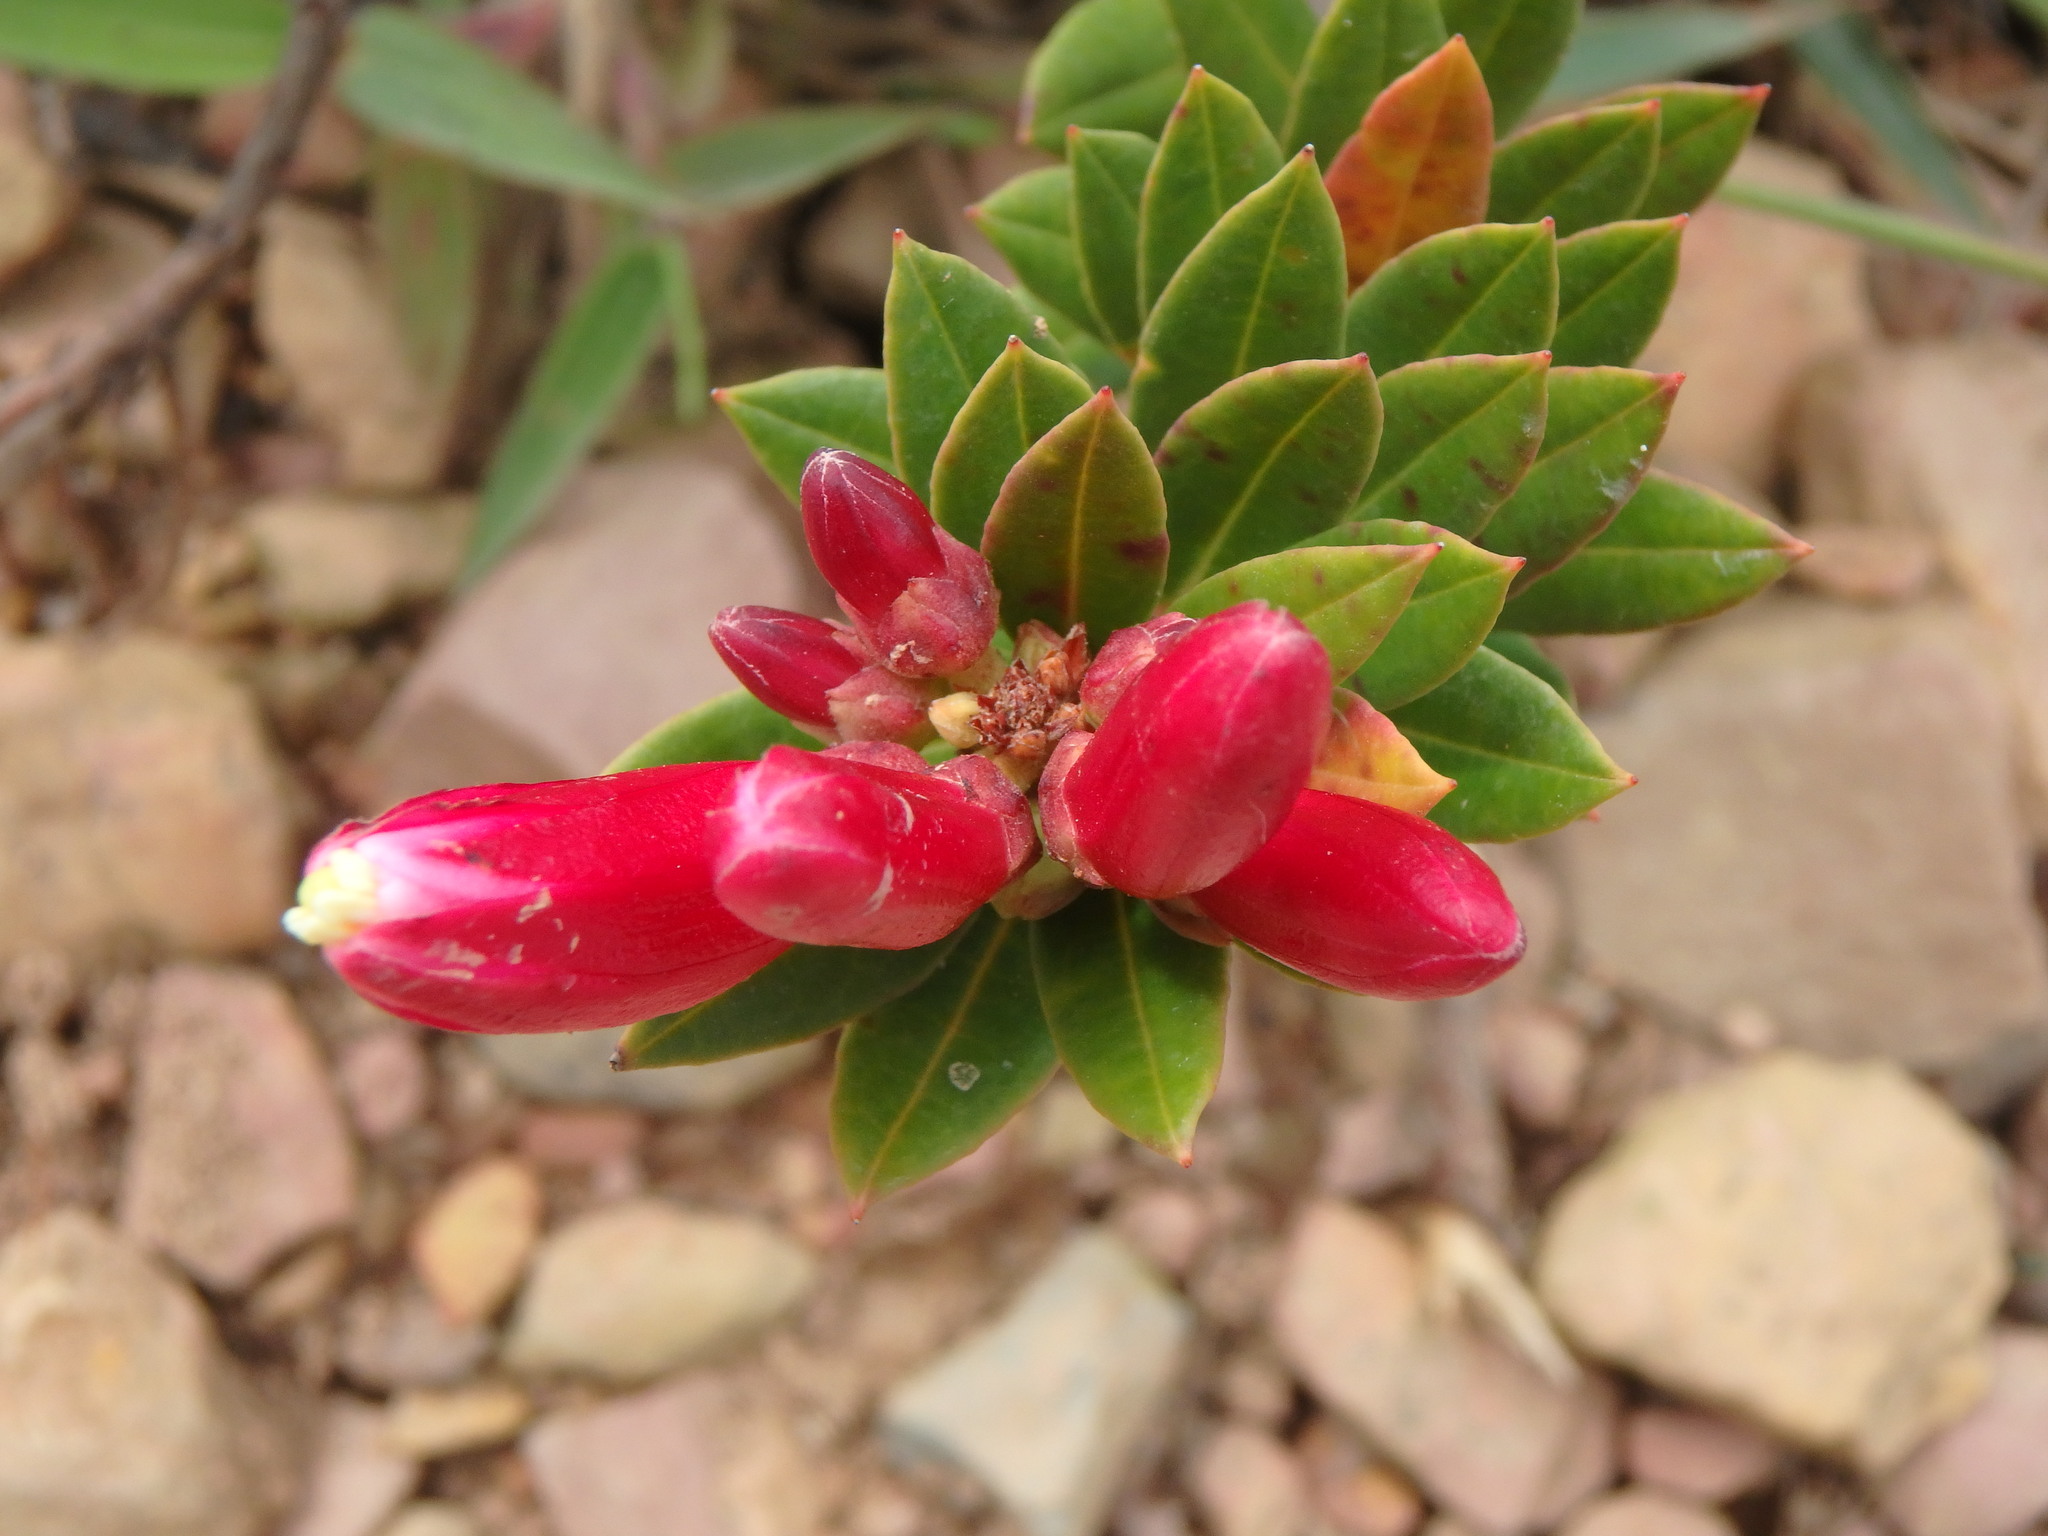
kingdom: Plantae
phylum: Tracheophyta
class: Magnoliopsida
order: Ericales
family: Ericaceae
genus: Bejaria
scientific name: Bejaria resinosa
